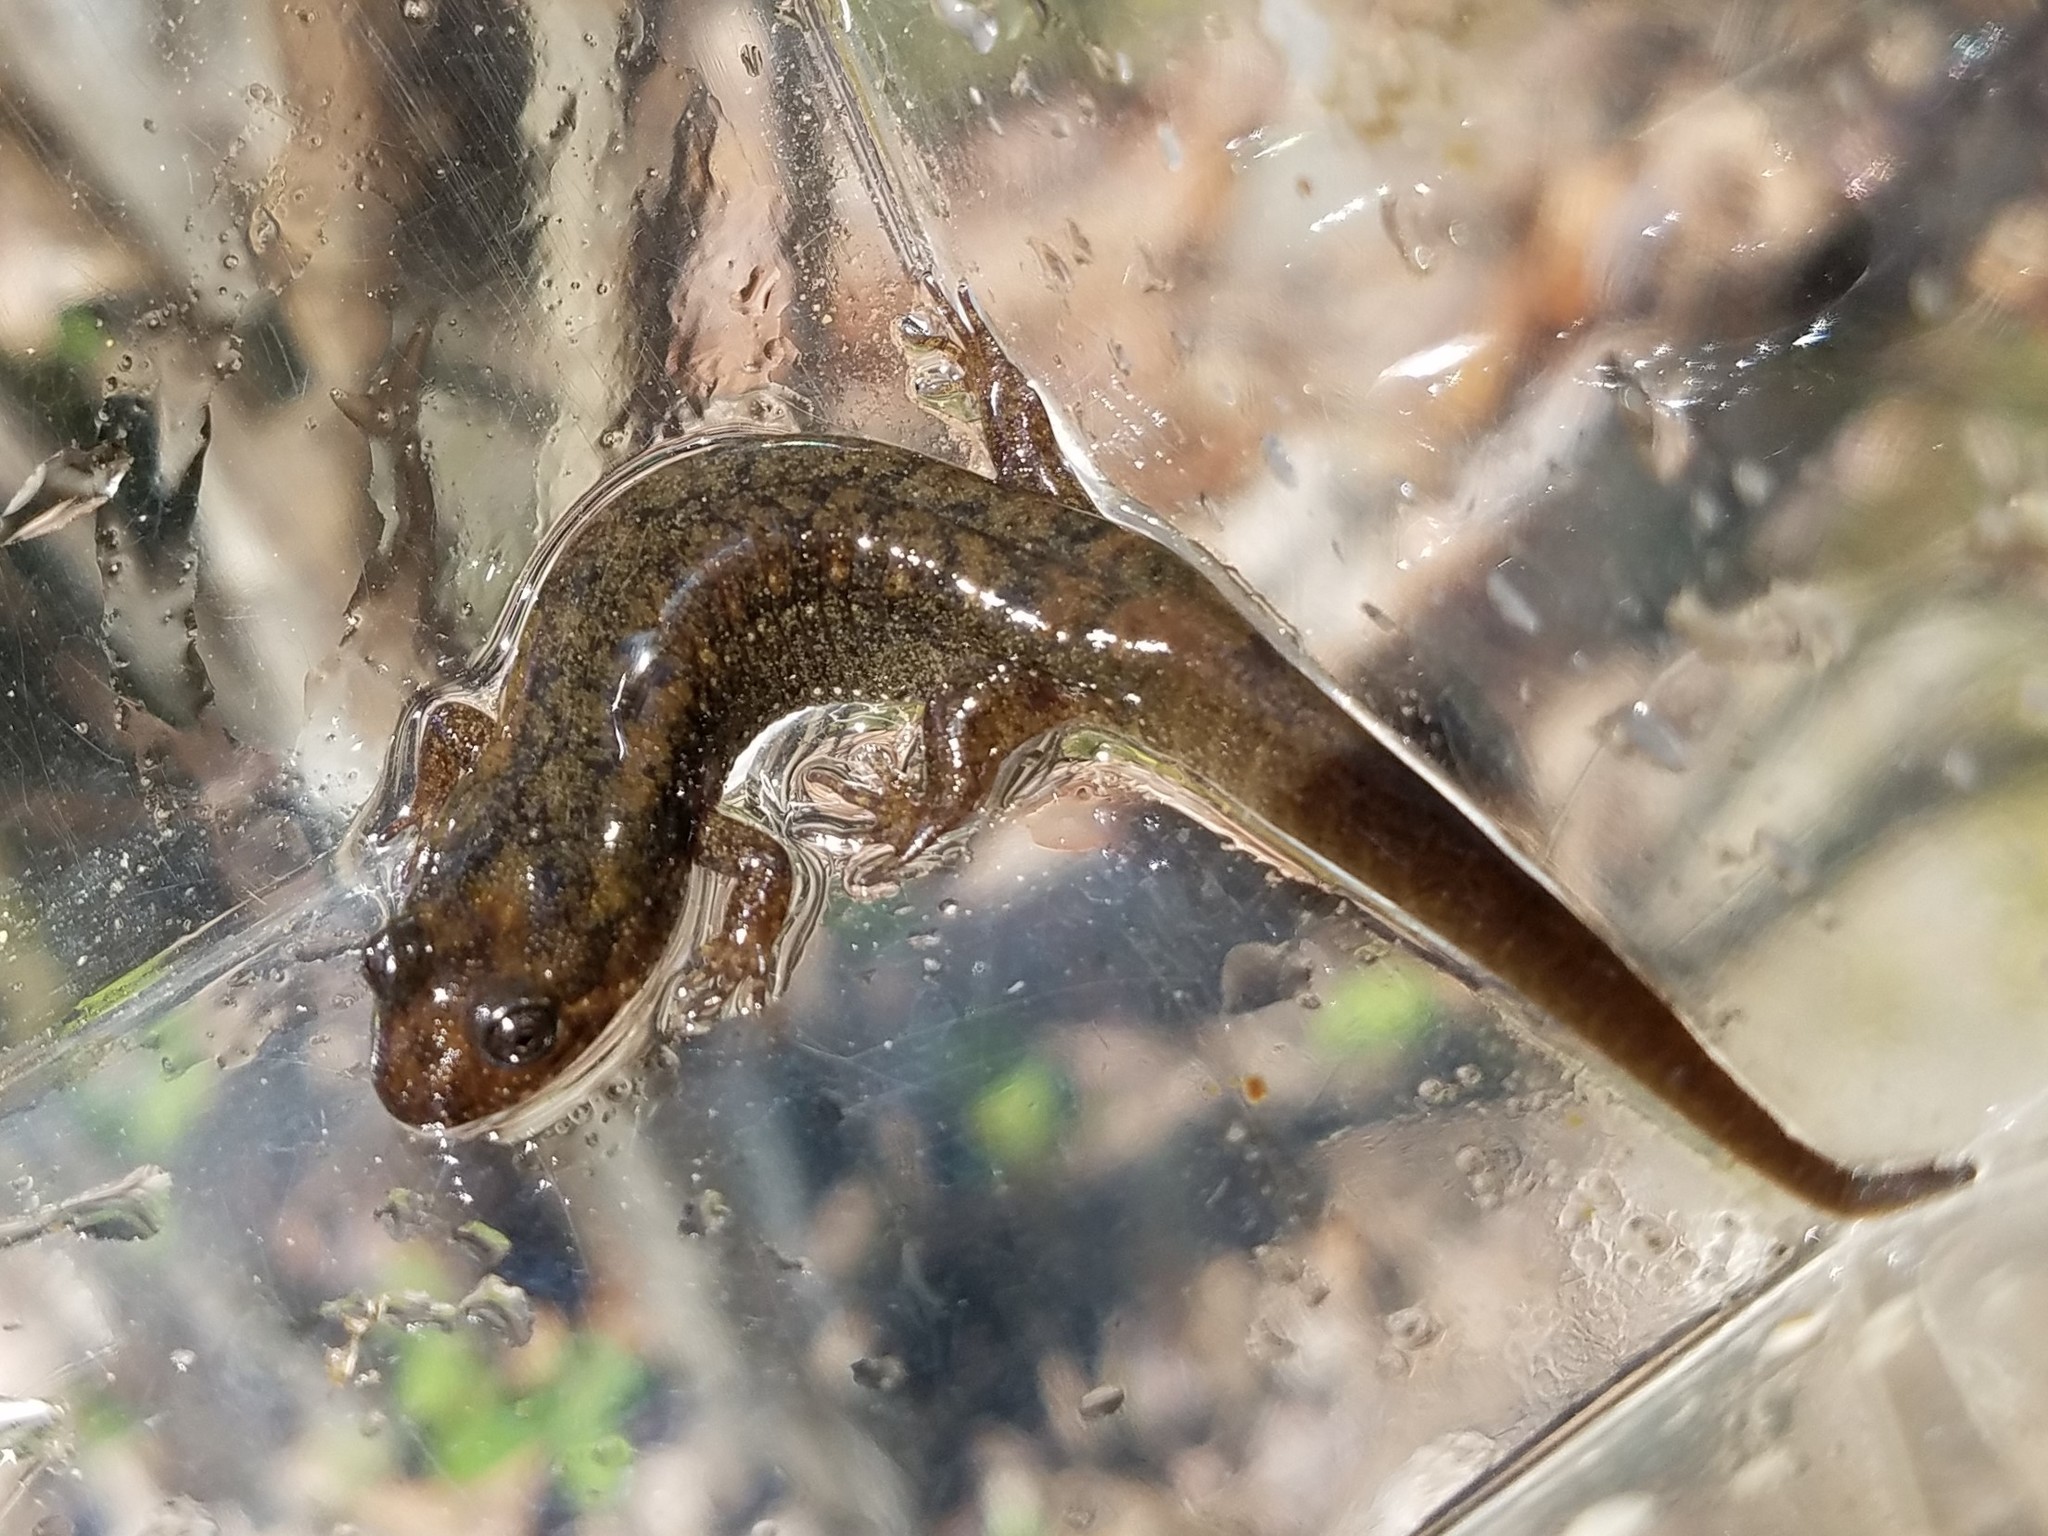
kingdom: Animalia
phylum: Chordata
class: Amphibia
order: Caudata
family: Plethodontidae
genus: Desmognathus
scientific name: Desmognathus
